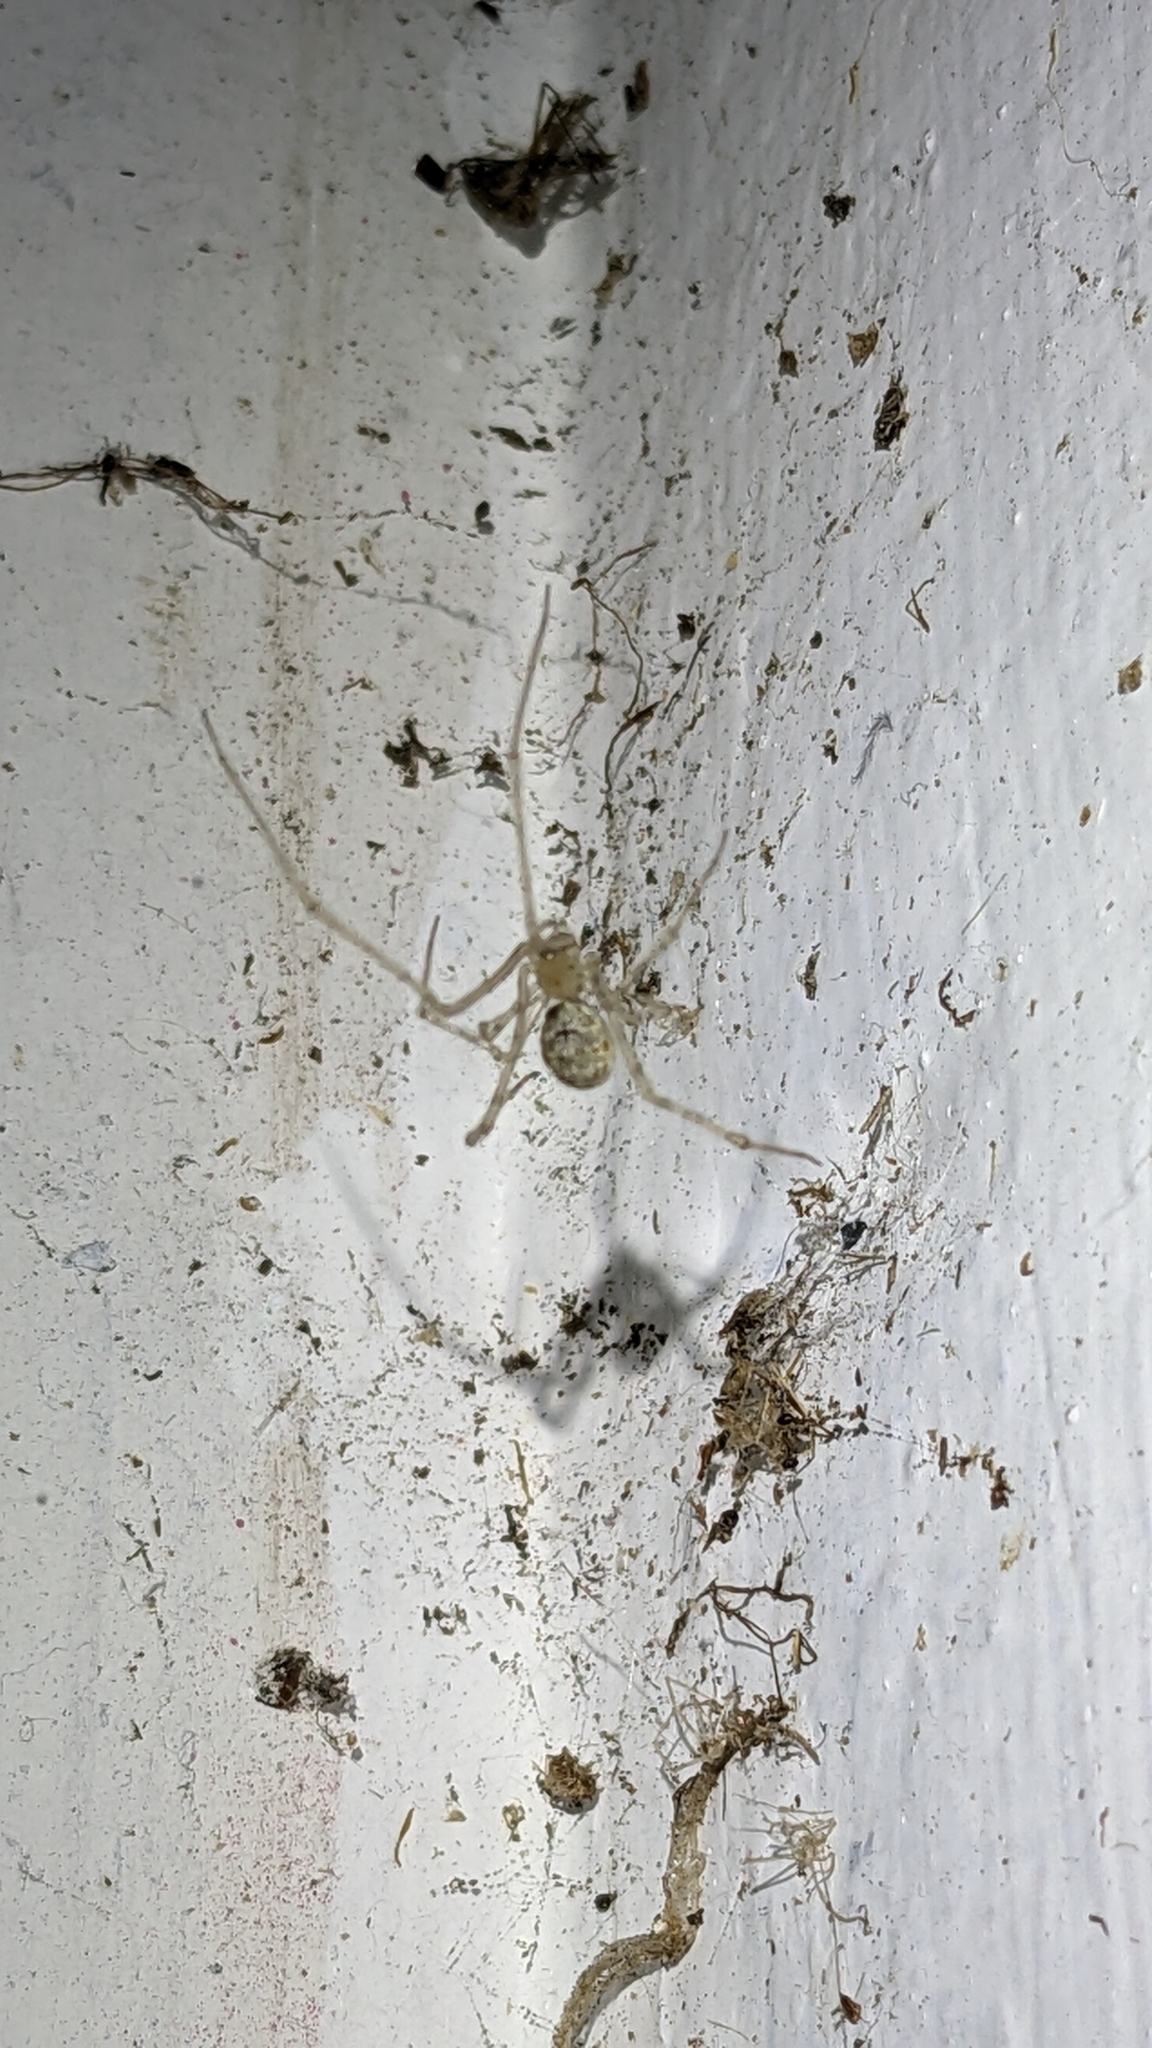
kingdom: Animalia
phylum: Arthropoda
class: Arachnida
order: Araneae
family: Theridiidae
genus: Cryptachaea
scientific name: Cryptachaea gigantipes
